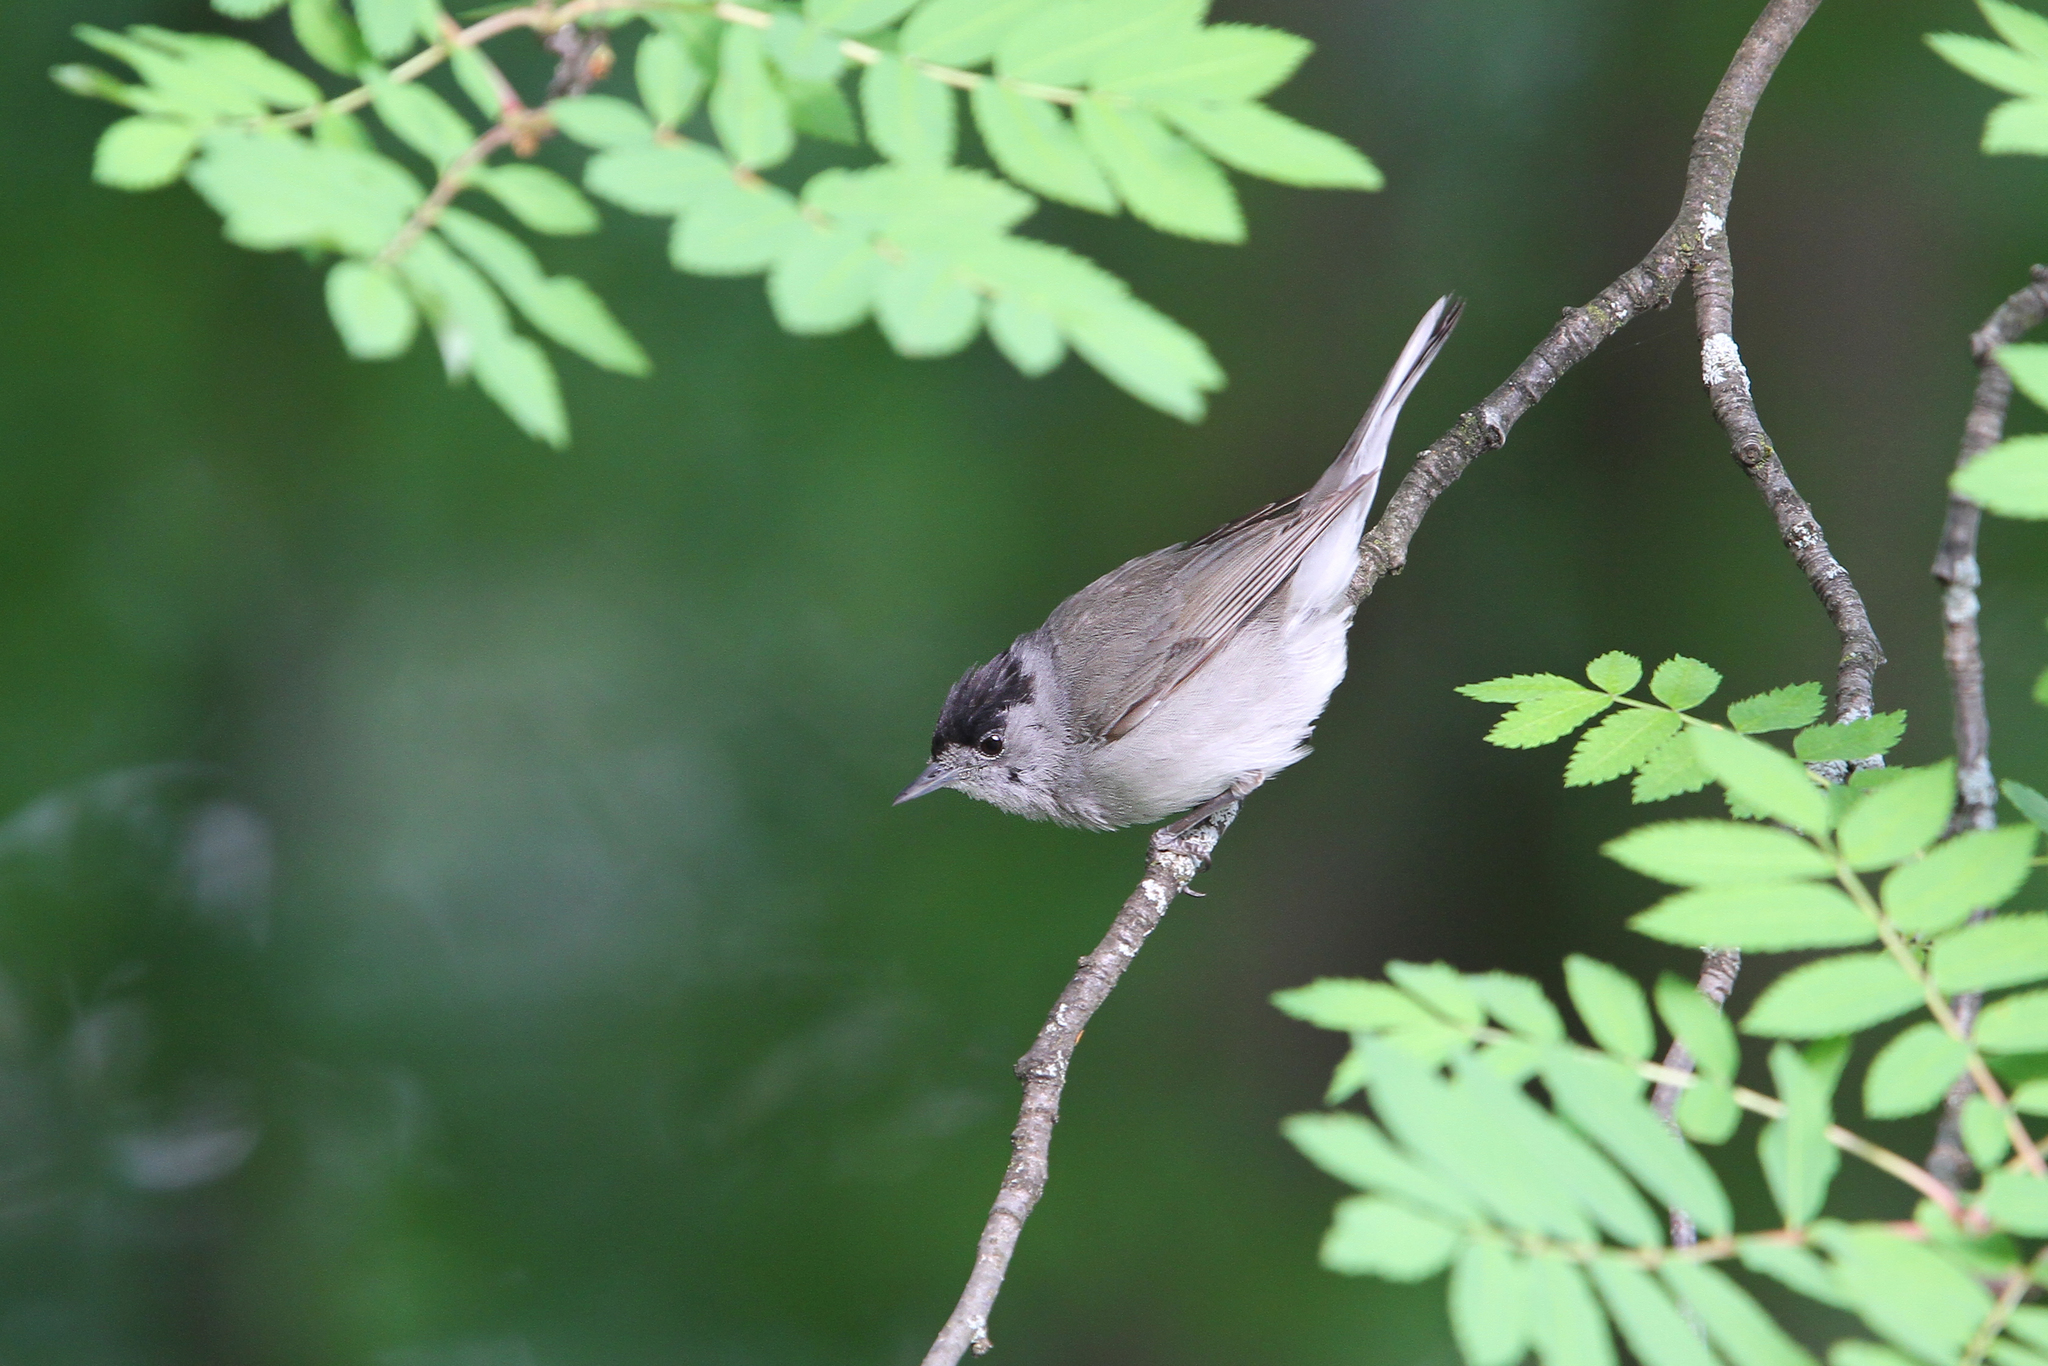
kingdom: Animalia
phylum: Chordata
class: Aves
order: Passeriformes
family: Sylviidae
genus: Sylvia
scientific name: Sylvia atricapilla
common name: Eurasian blackcap
